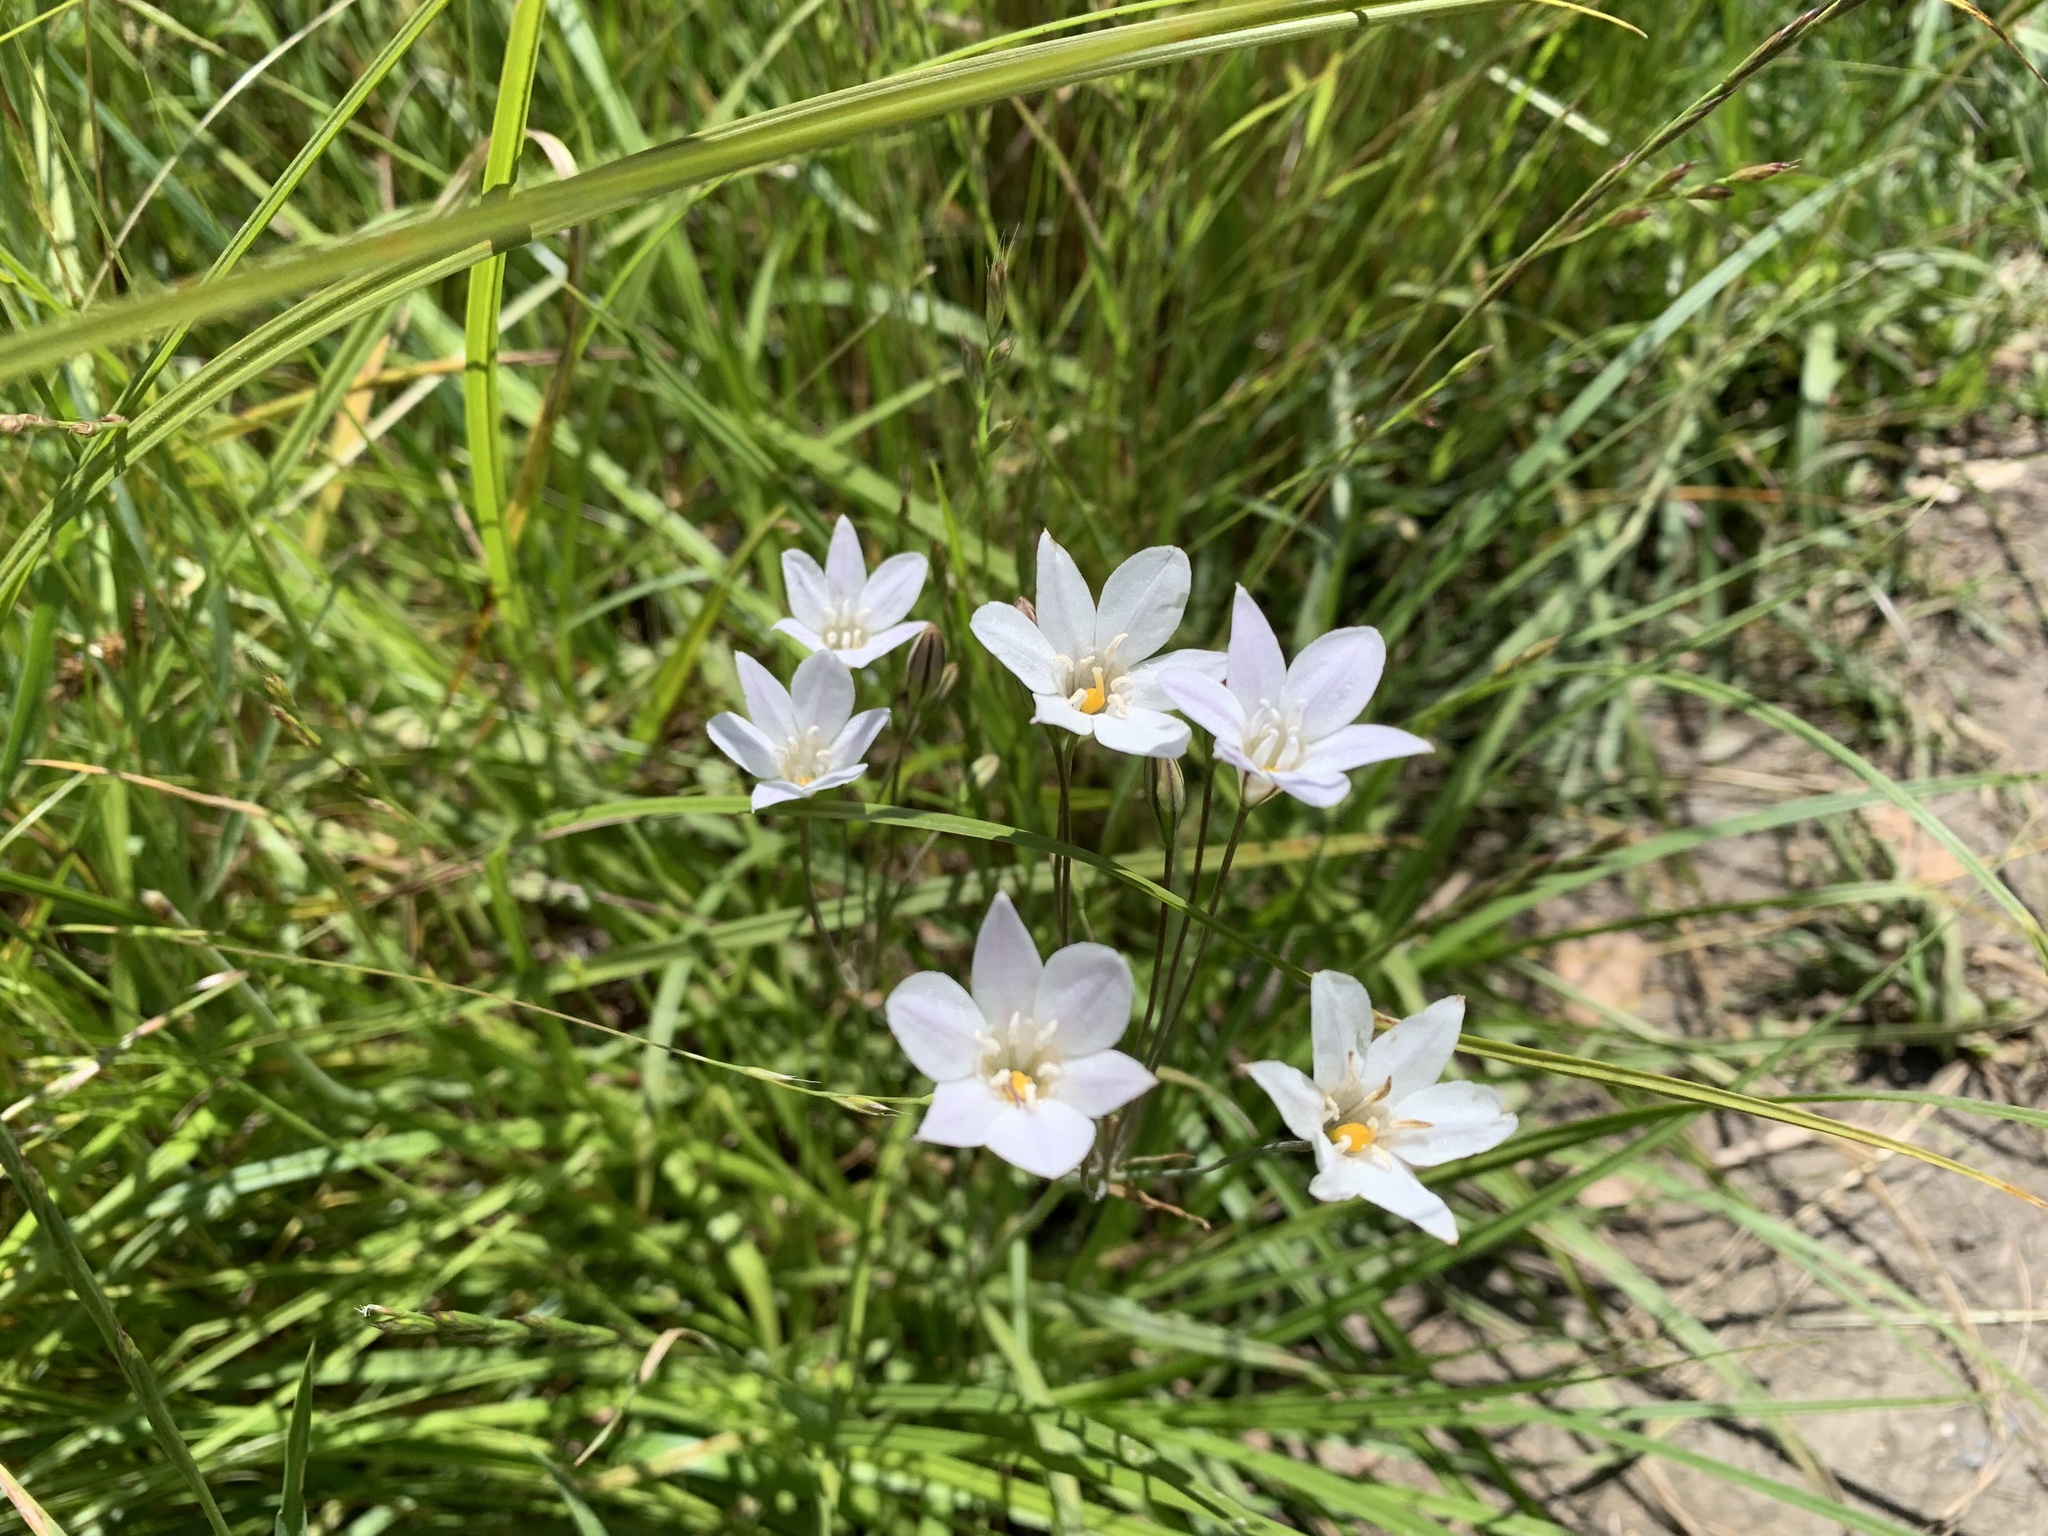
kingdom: Plantae
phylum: Tracheophyta
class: Liliopsida
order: Asparagales
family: Asparagaceae
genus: Triteleia
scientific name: Triteleia peduncularis
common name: Long-ray brodiaea
